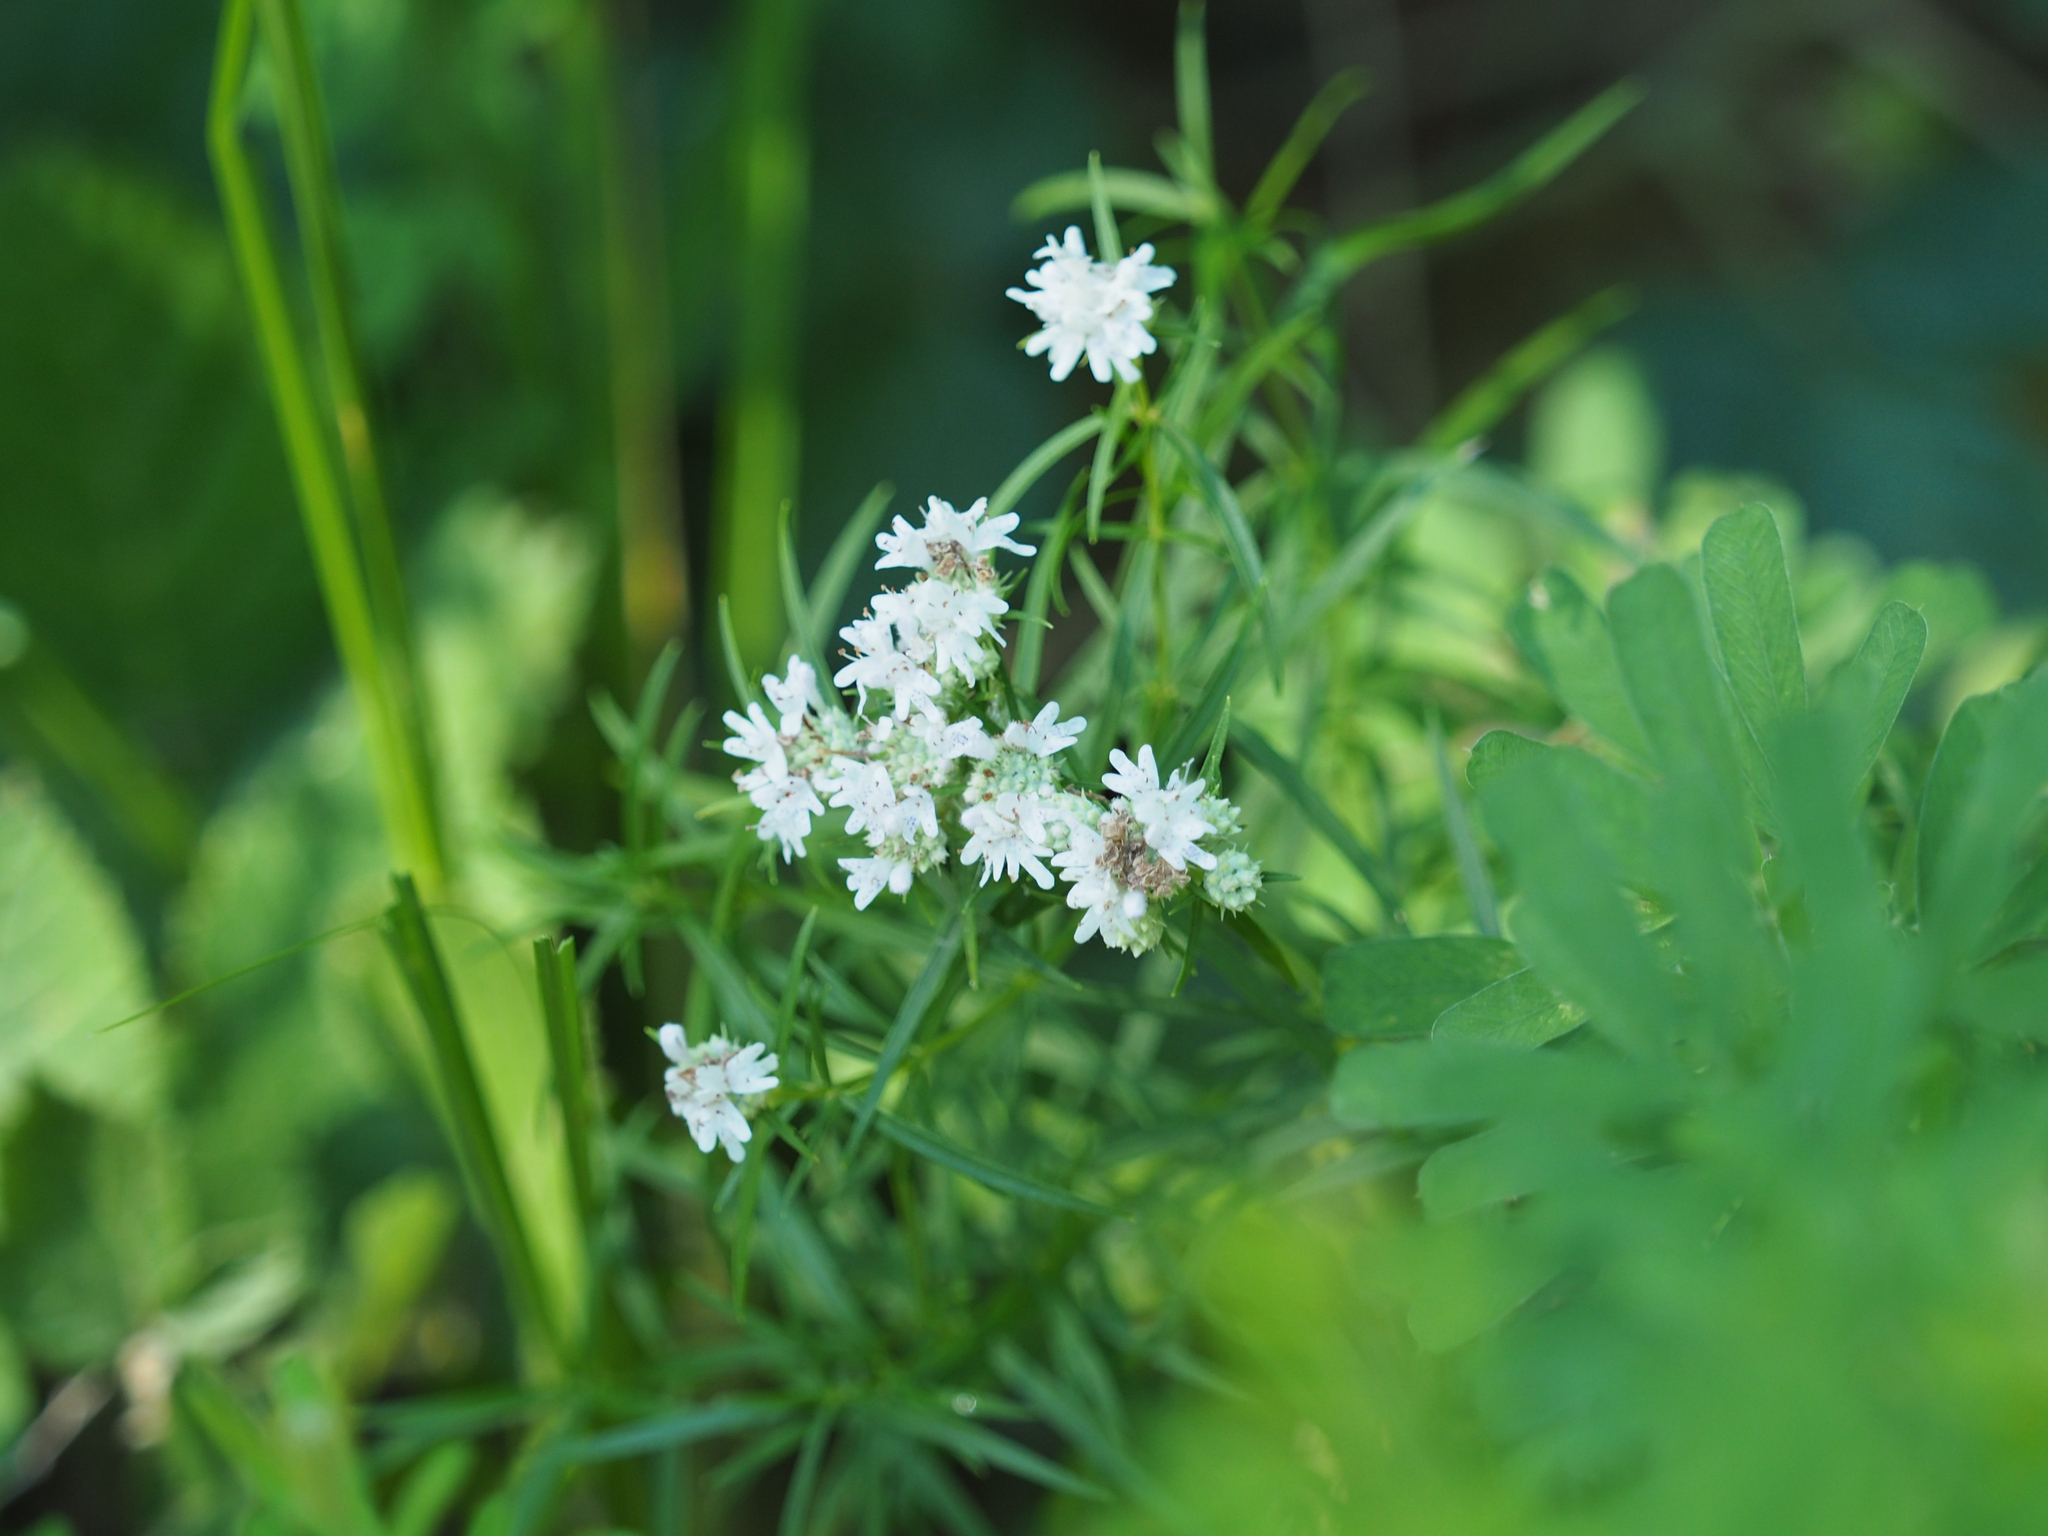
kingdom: Plantae
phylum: Tracheophyta
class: Magnoliopsida
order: Lamiales
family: Lamiaceae
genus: Pycnanthemum
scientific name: Pycnanthemum tenuifolium
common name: Narrow-leaf mountain-mint
